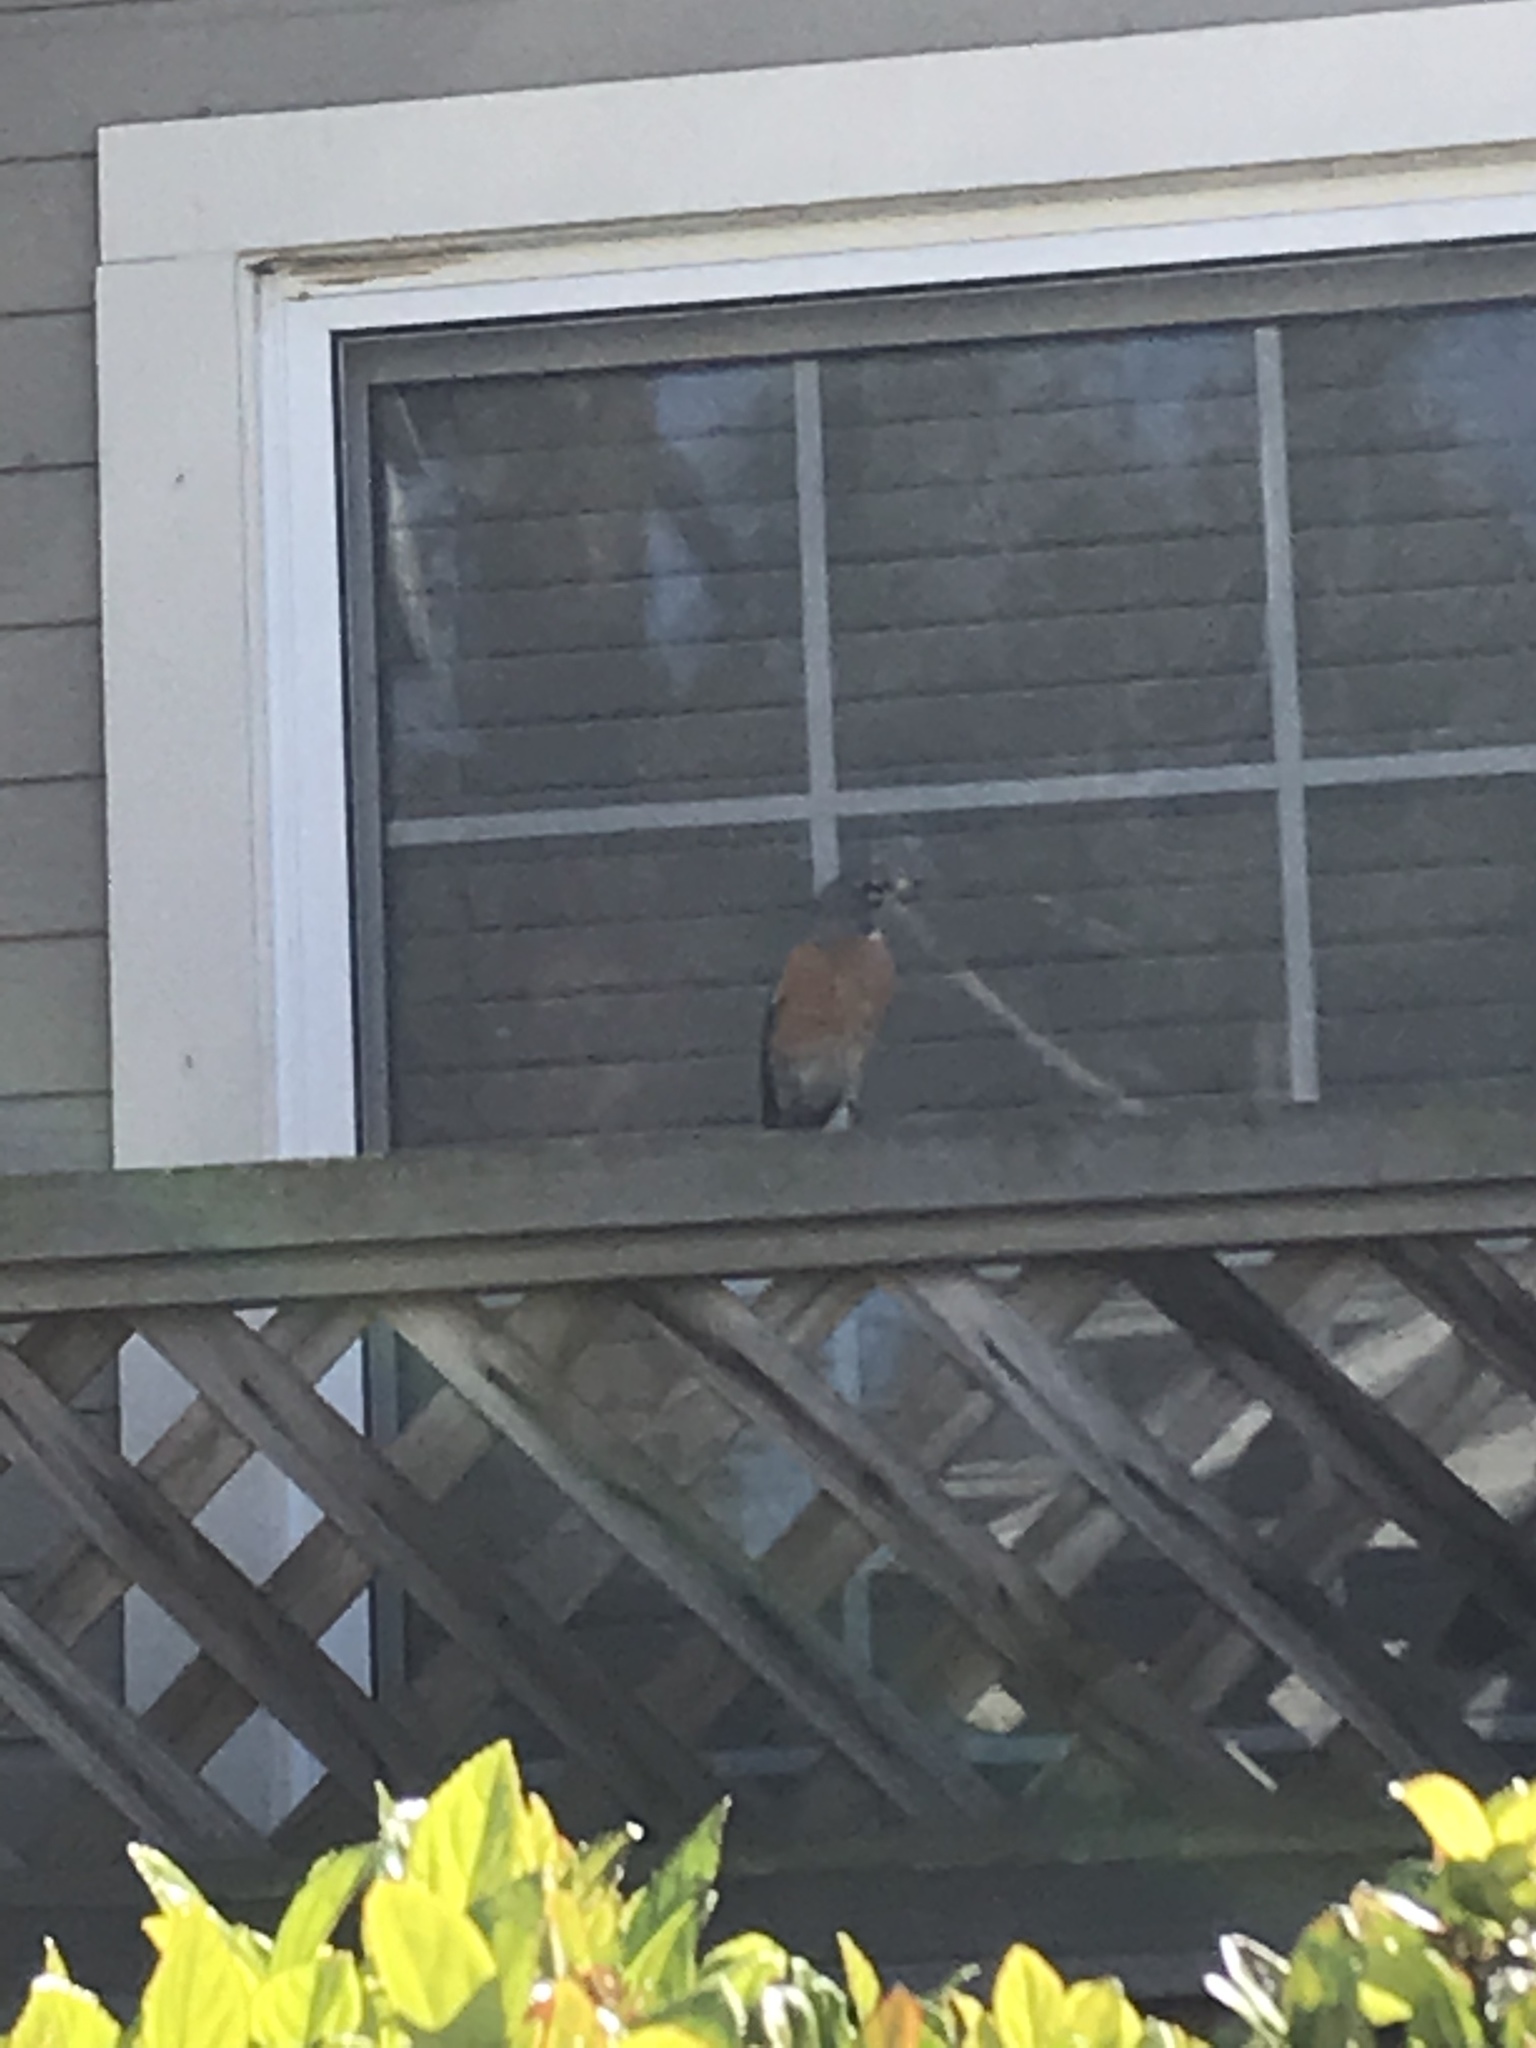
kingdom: Animalia
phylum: Chordata
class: Aves
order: Passeriformes
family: Turdidae
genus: Turdus
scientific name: Turdus migratorius
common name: American robin
